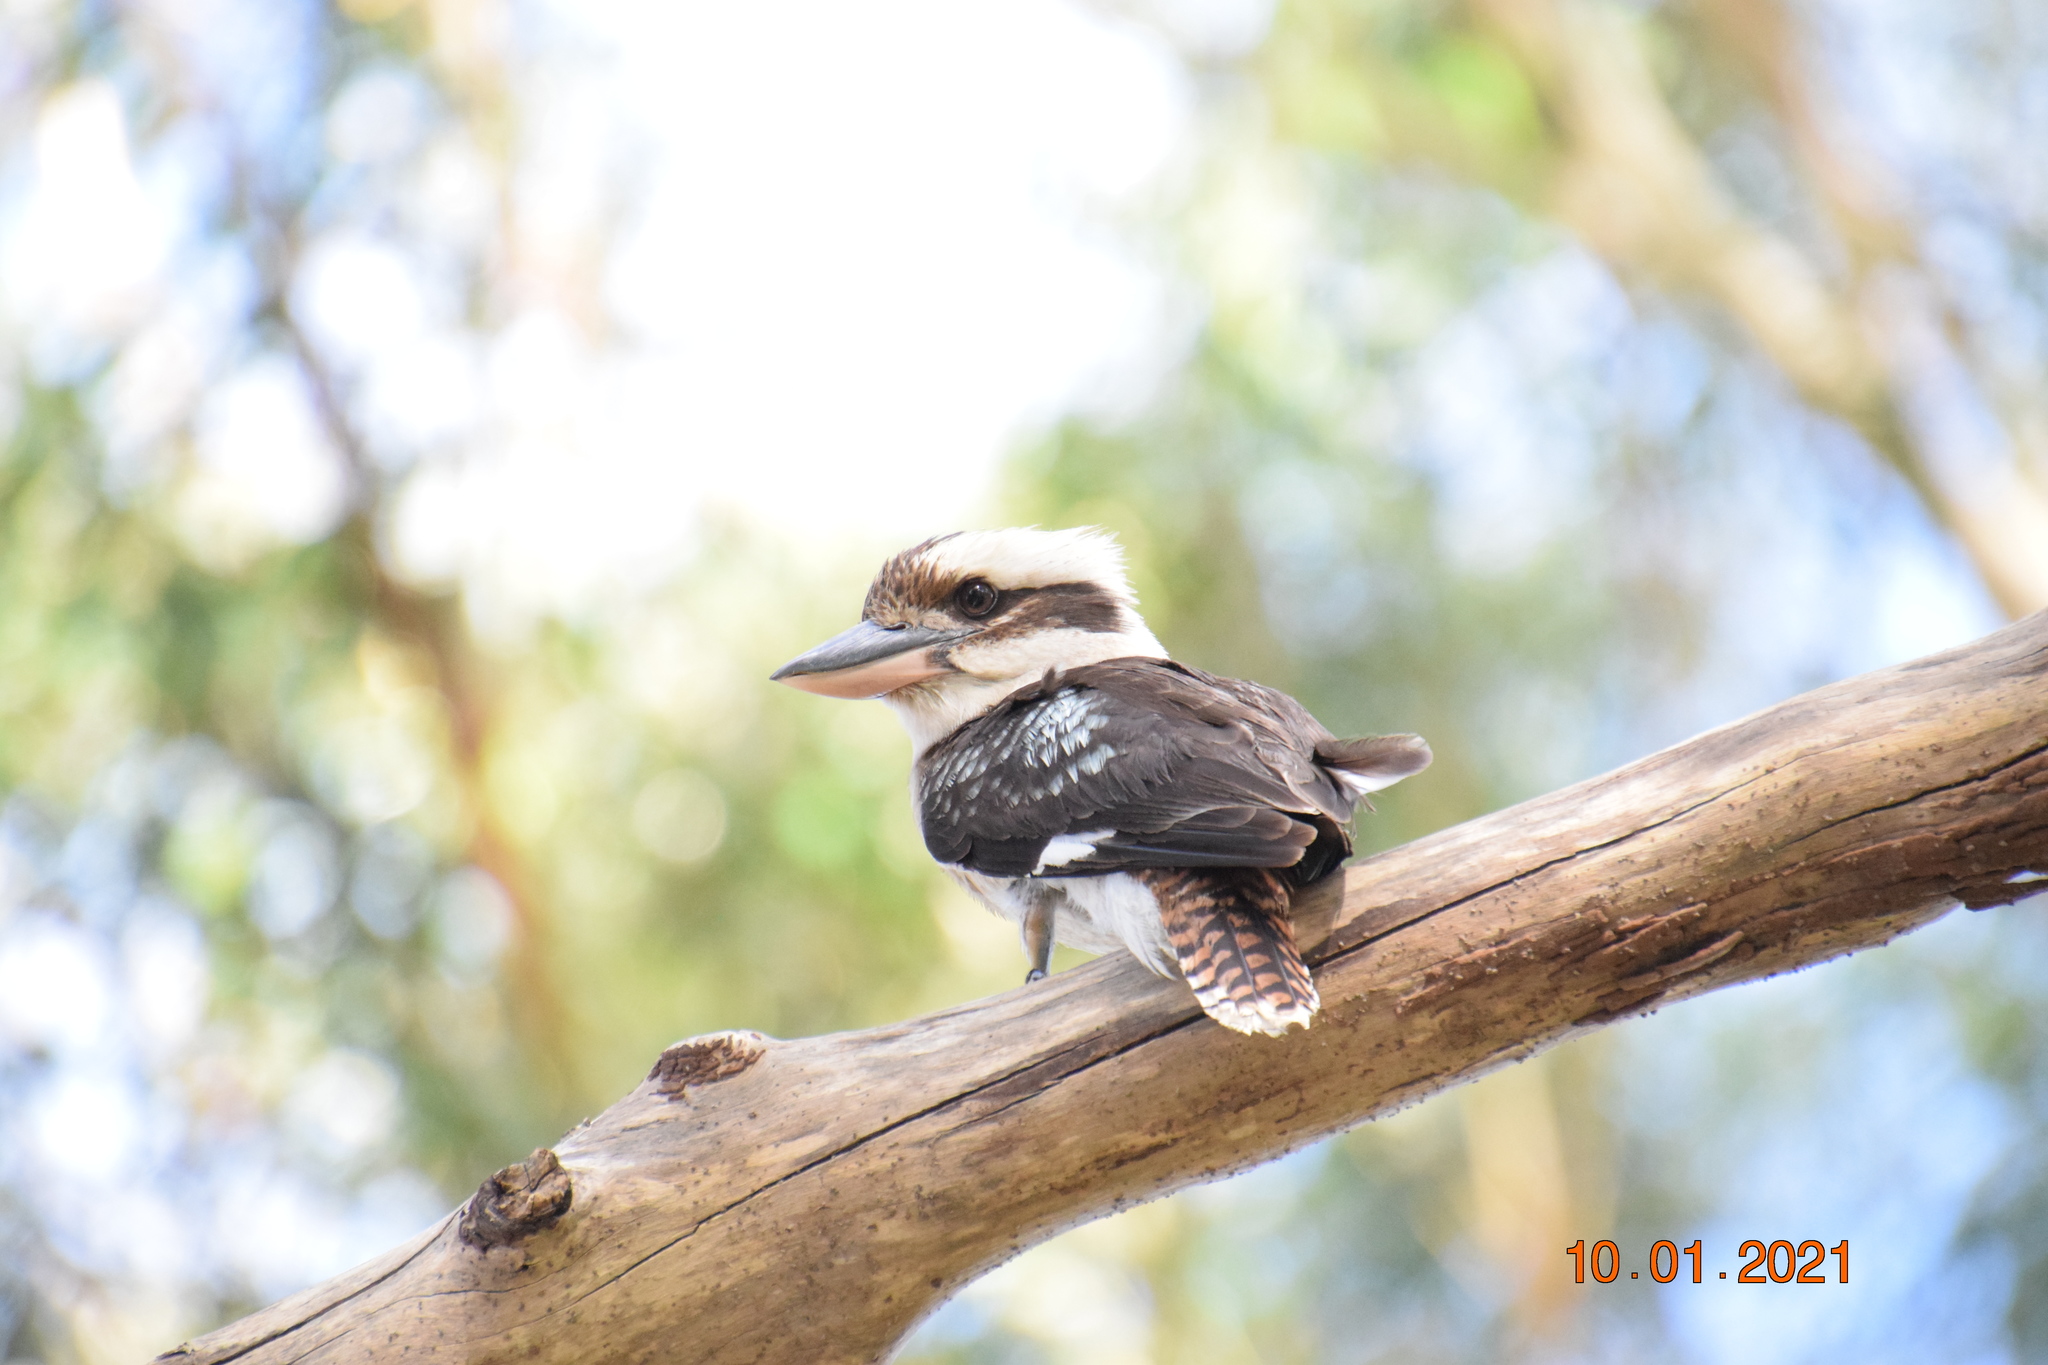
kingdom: Animalia
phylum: Chordata
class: Aves
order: Coraciiformes
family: Alcedinidae
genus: Dacelo
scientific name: Dacelo novaeguineae
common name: Laughing kookaburra
